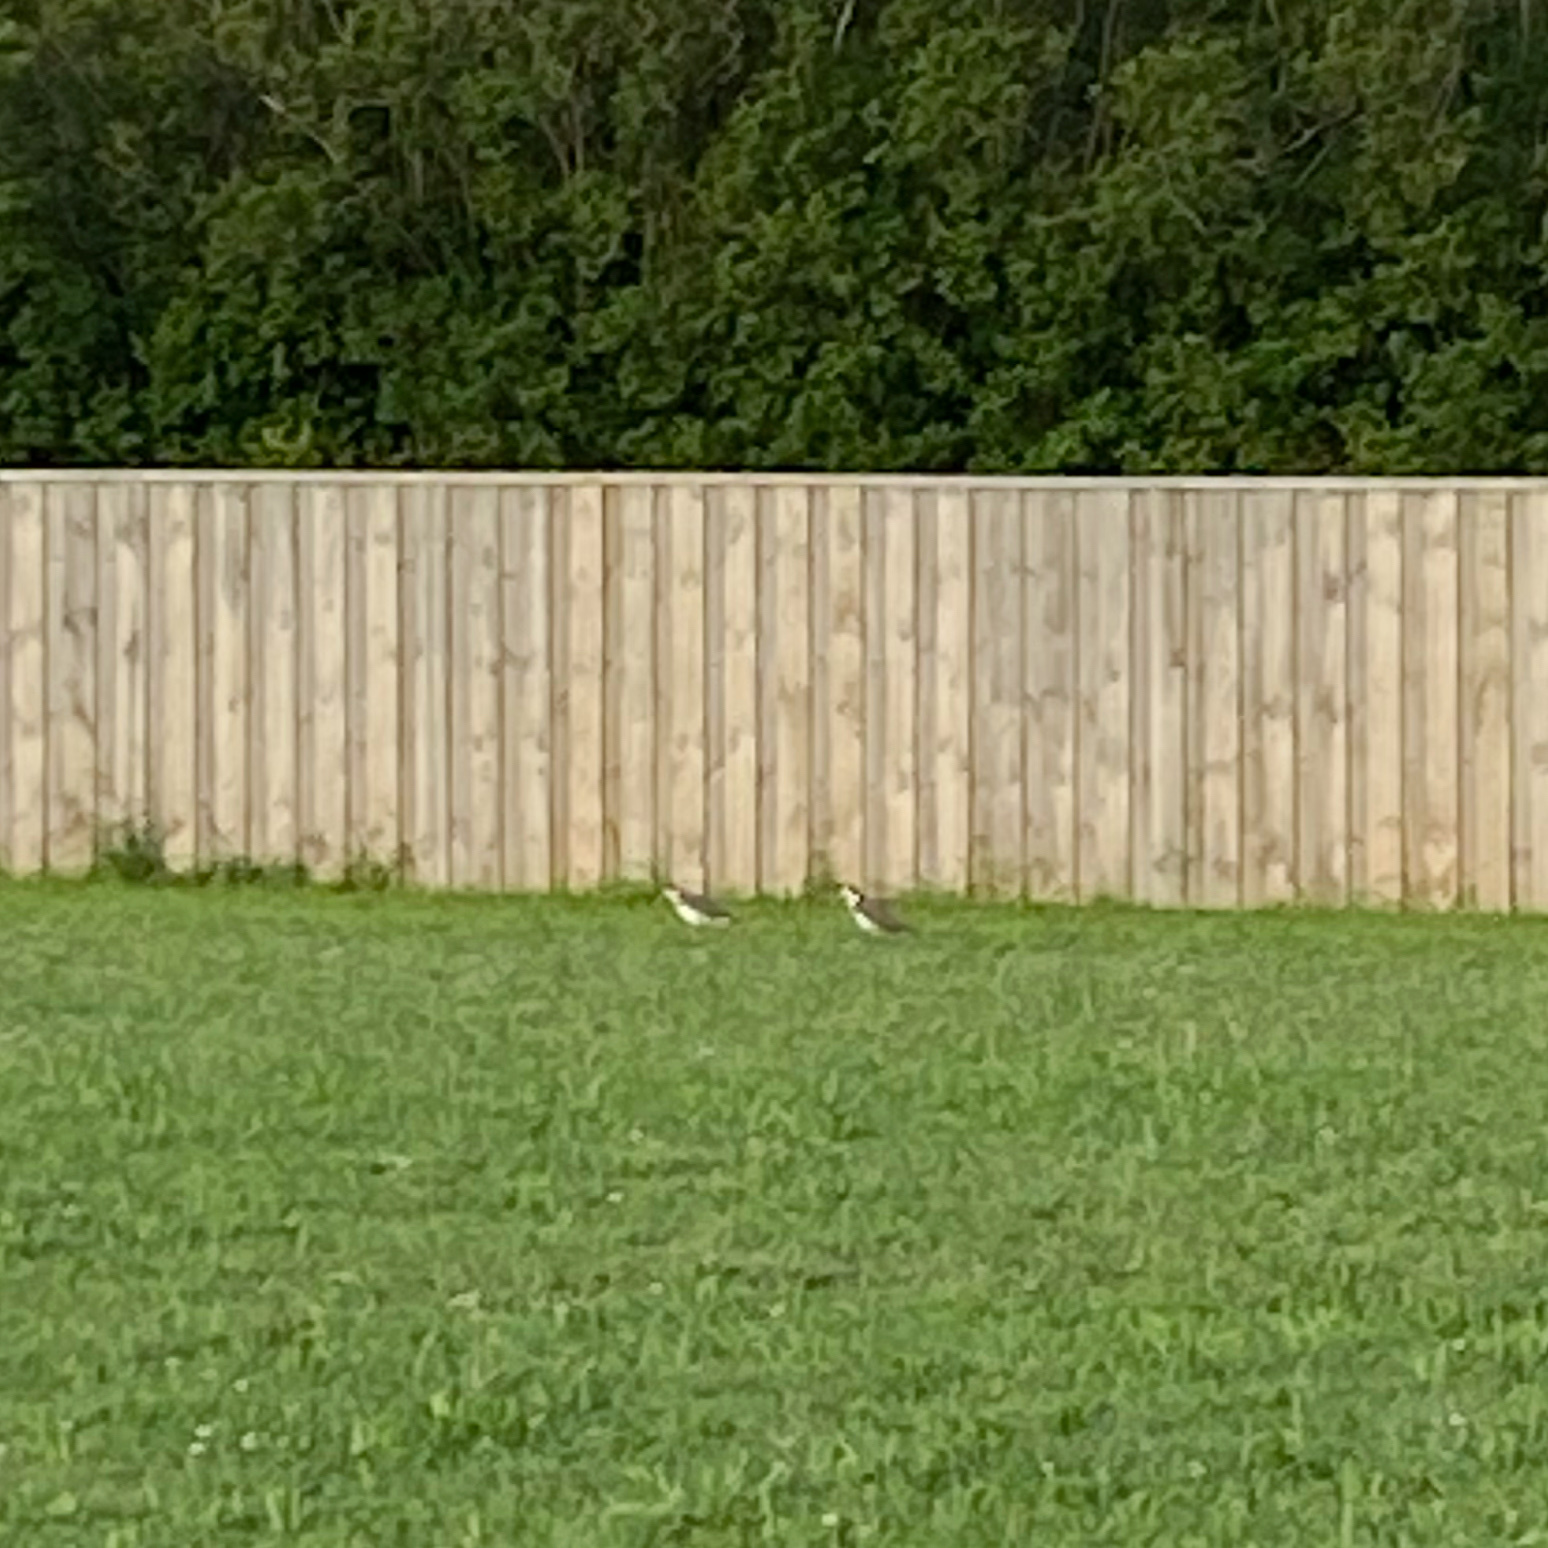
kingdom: Animalia
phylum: Chordata
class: Aves
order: Charadriiformes
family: Charadriidae
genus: Vanellus
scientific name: Vanellus miles
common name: Masked lapwing
